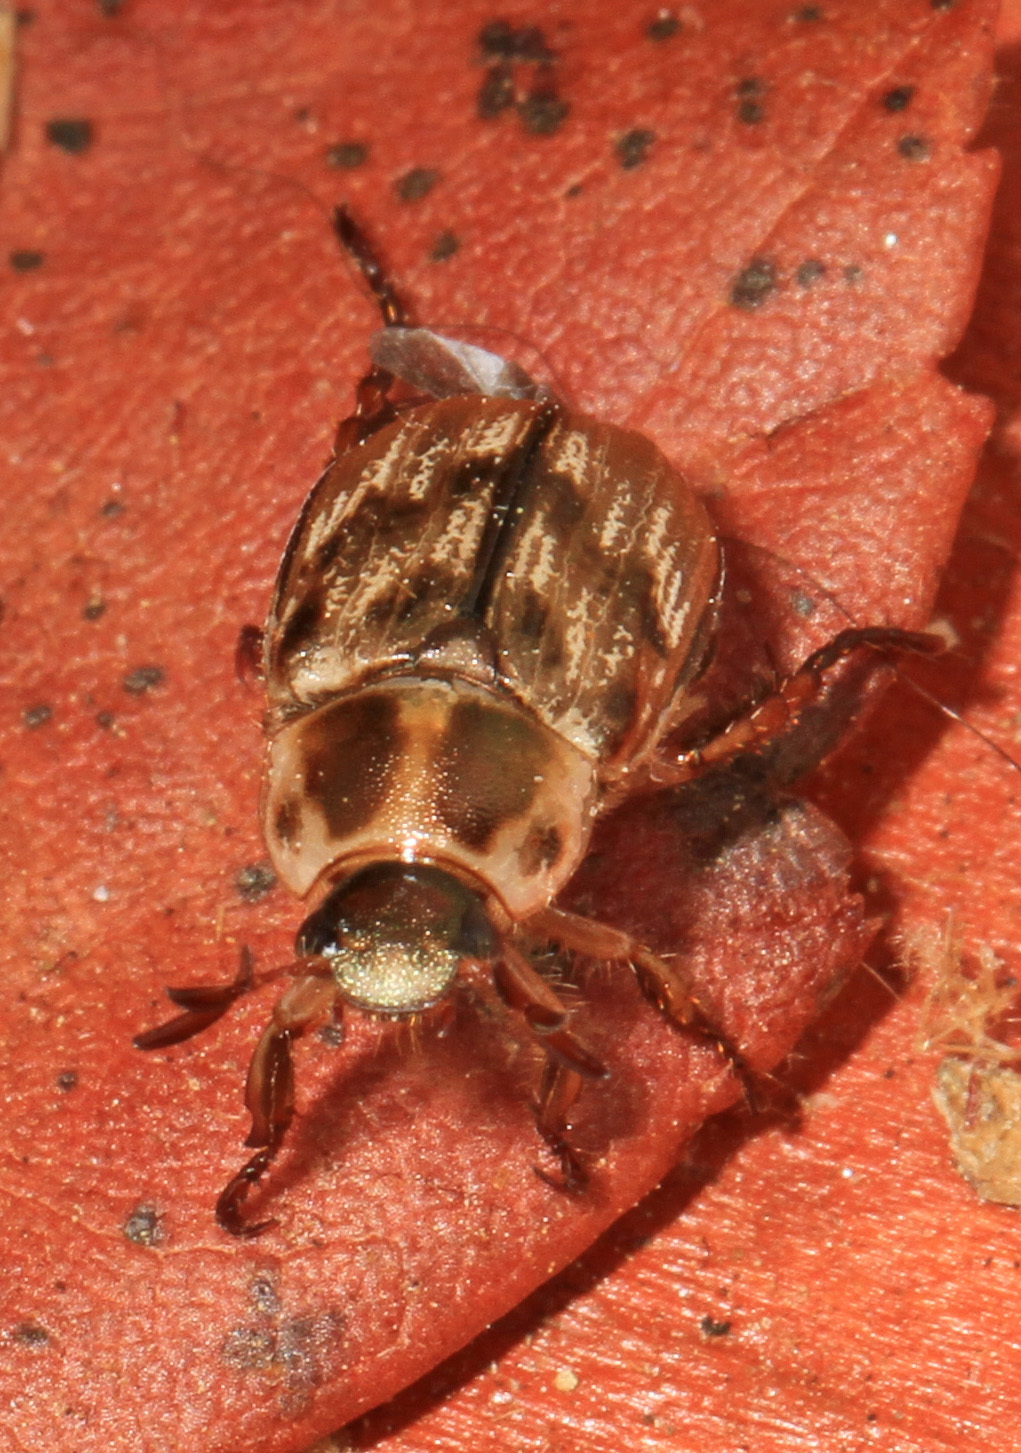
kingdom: Animalia
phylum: Arthropoda
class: Insecta
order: Coleoptera
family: Scarabaeidae
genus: Exomala
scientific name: Exomala orientalis
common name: Oriental beetle
